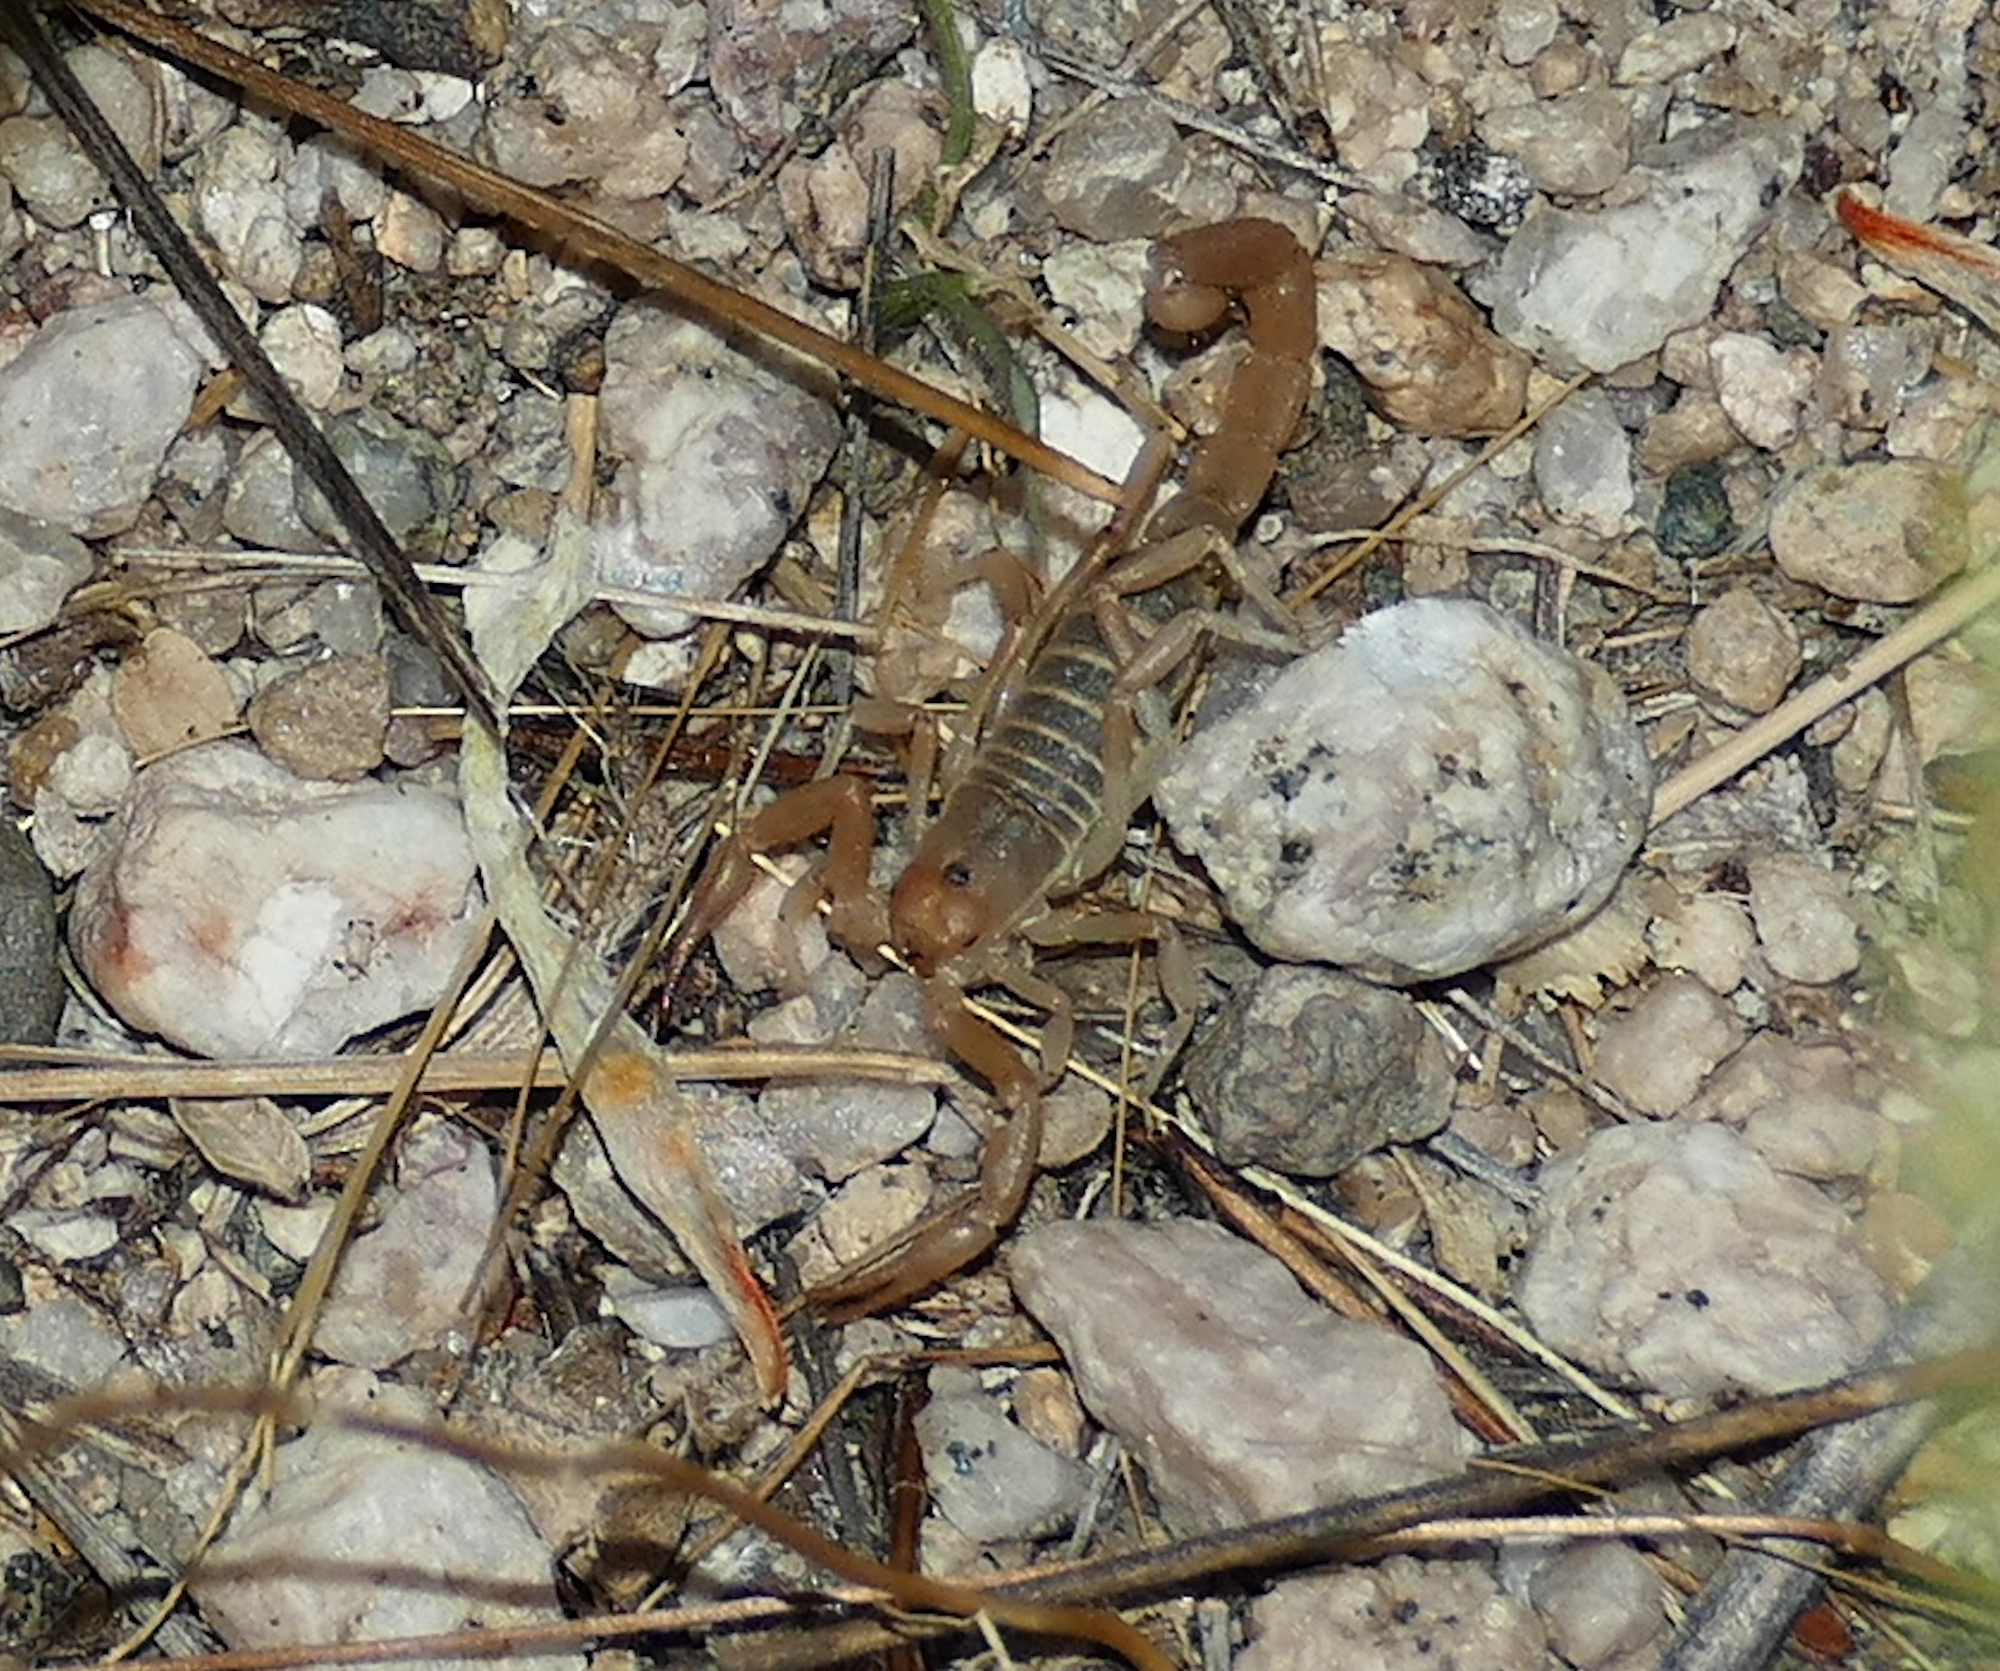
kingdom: Animalia
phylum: Arthropoda
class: Arachnida
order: Scorpiones
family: Vaejovidae
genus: Paravaejovis
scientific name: Paravaejovis confusus
